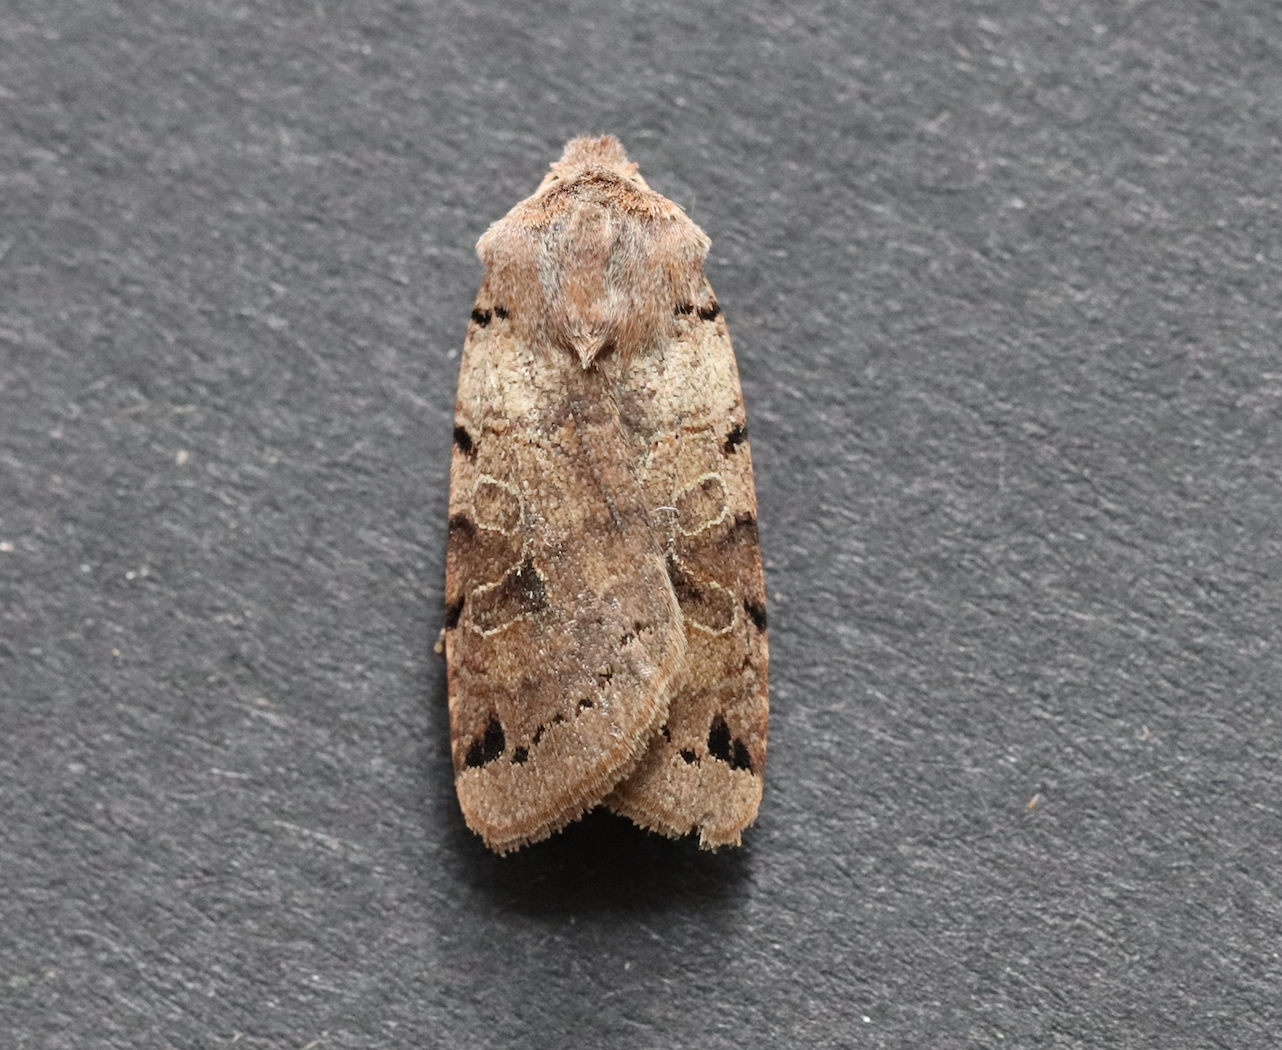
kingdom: Animalia
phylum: Arthropoda
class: Insecta
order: Lepidoptera
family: Noctuidae
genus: Agrochola
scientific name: Agrochola litura
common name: Brown-spot pinion
